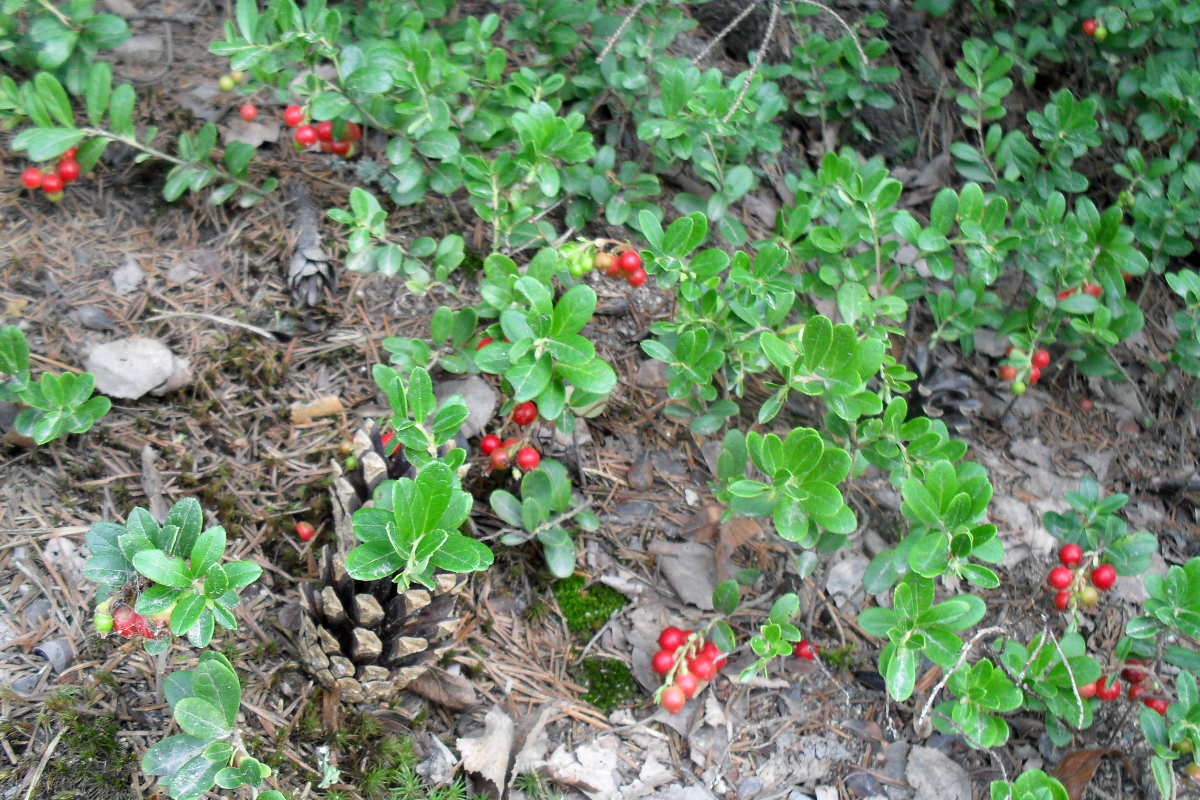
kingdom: Plantae
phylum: Tracheophyta
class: Magnoliopsida
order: Ericales
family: Ericaceae
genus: Vaccinium
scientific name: Vaccinium vitis-idaea
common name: Cowberry
